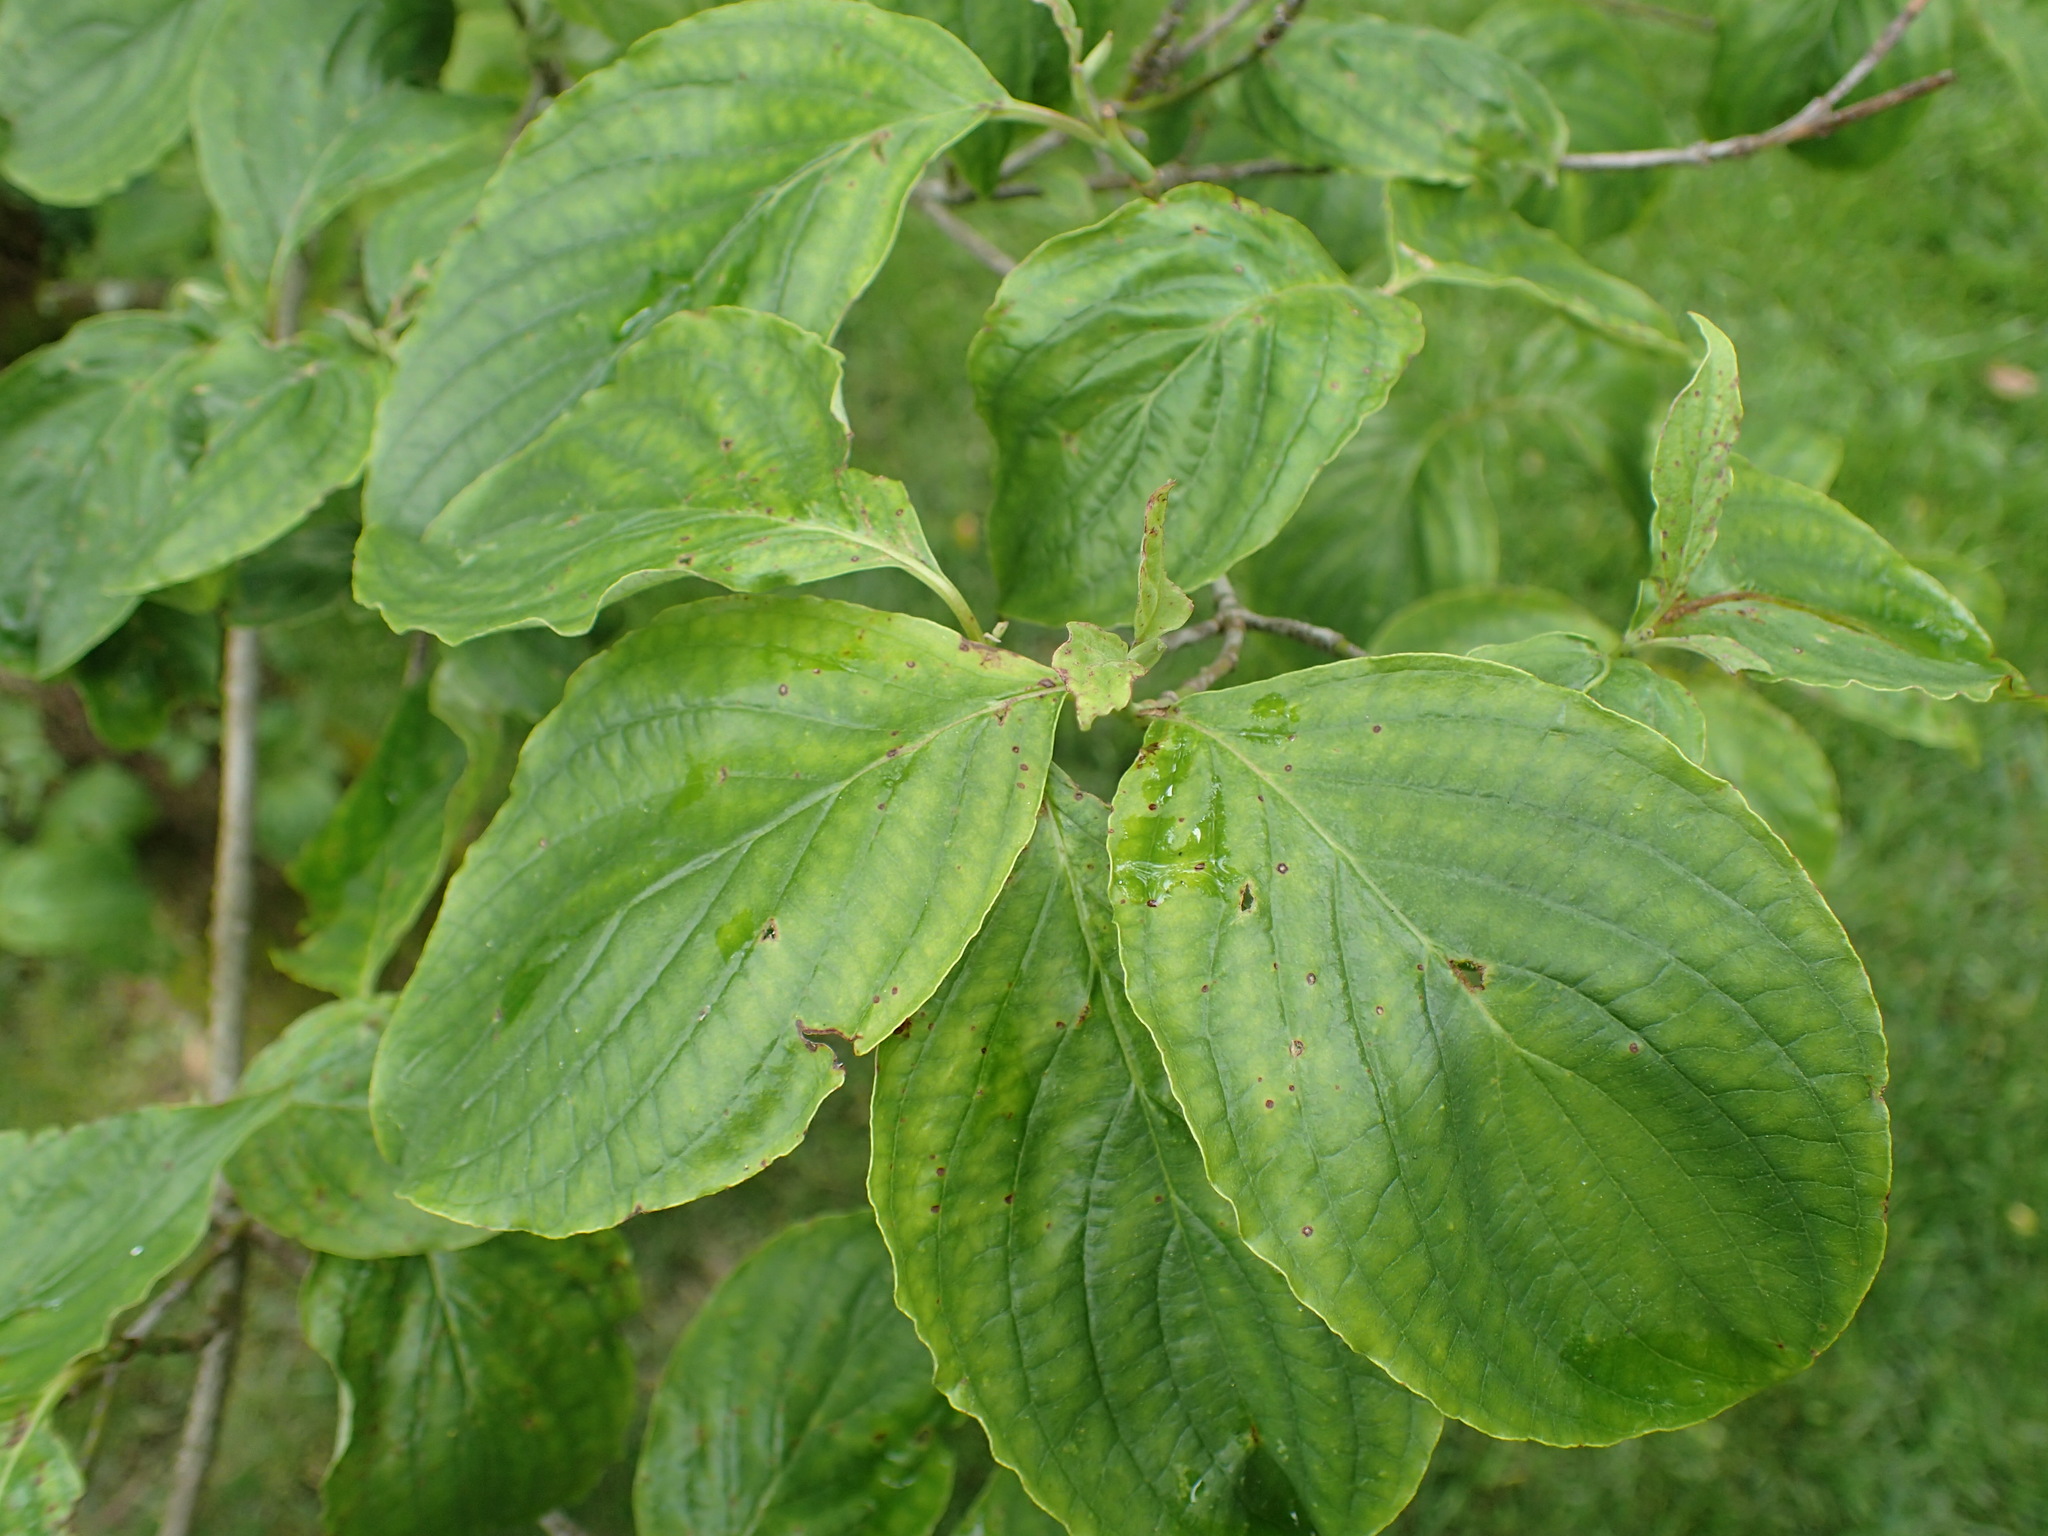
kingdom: Plantae
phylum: Tracheophyta
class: Magnoliopsida
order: Cornales
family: Cornaceae
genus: Cornus
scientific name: Cornus florida
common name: Flowering dogwood
